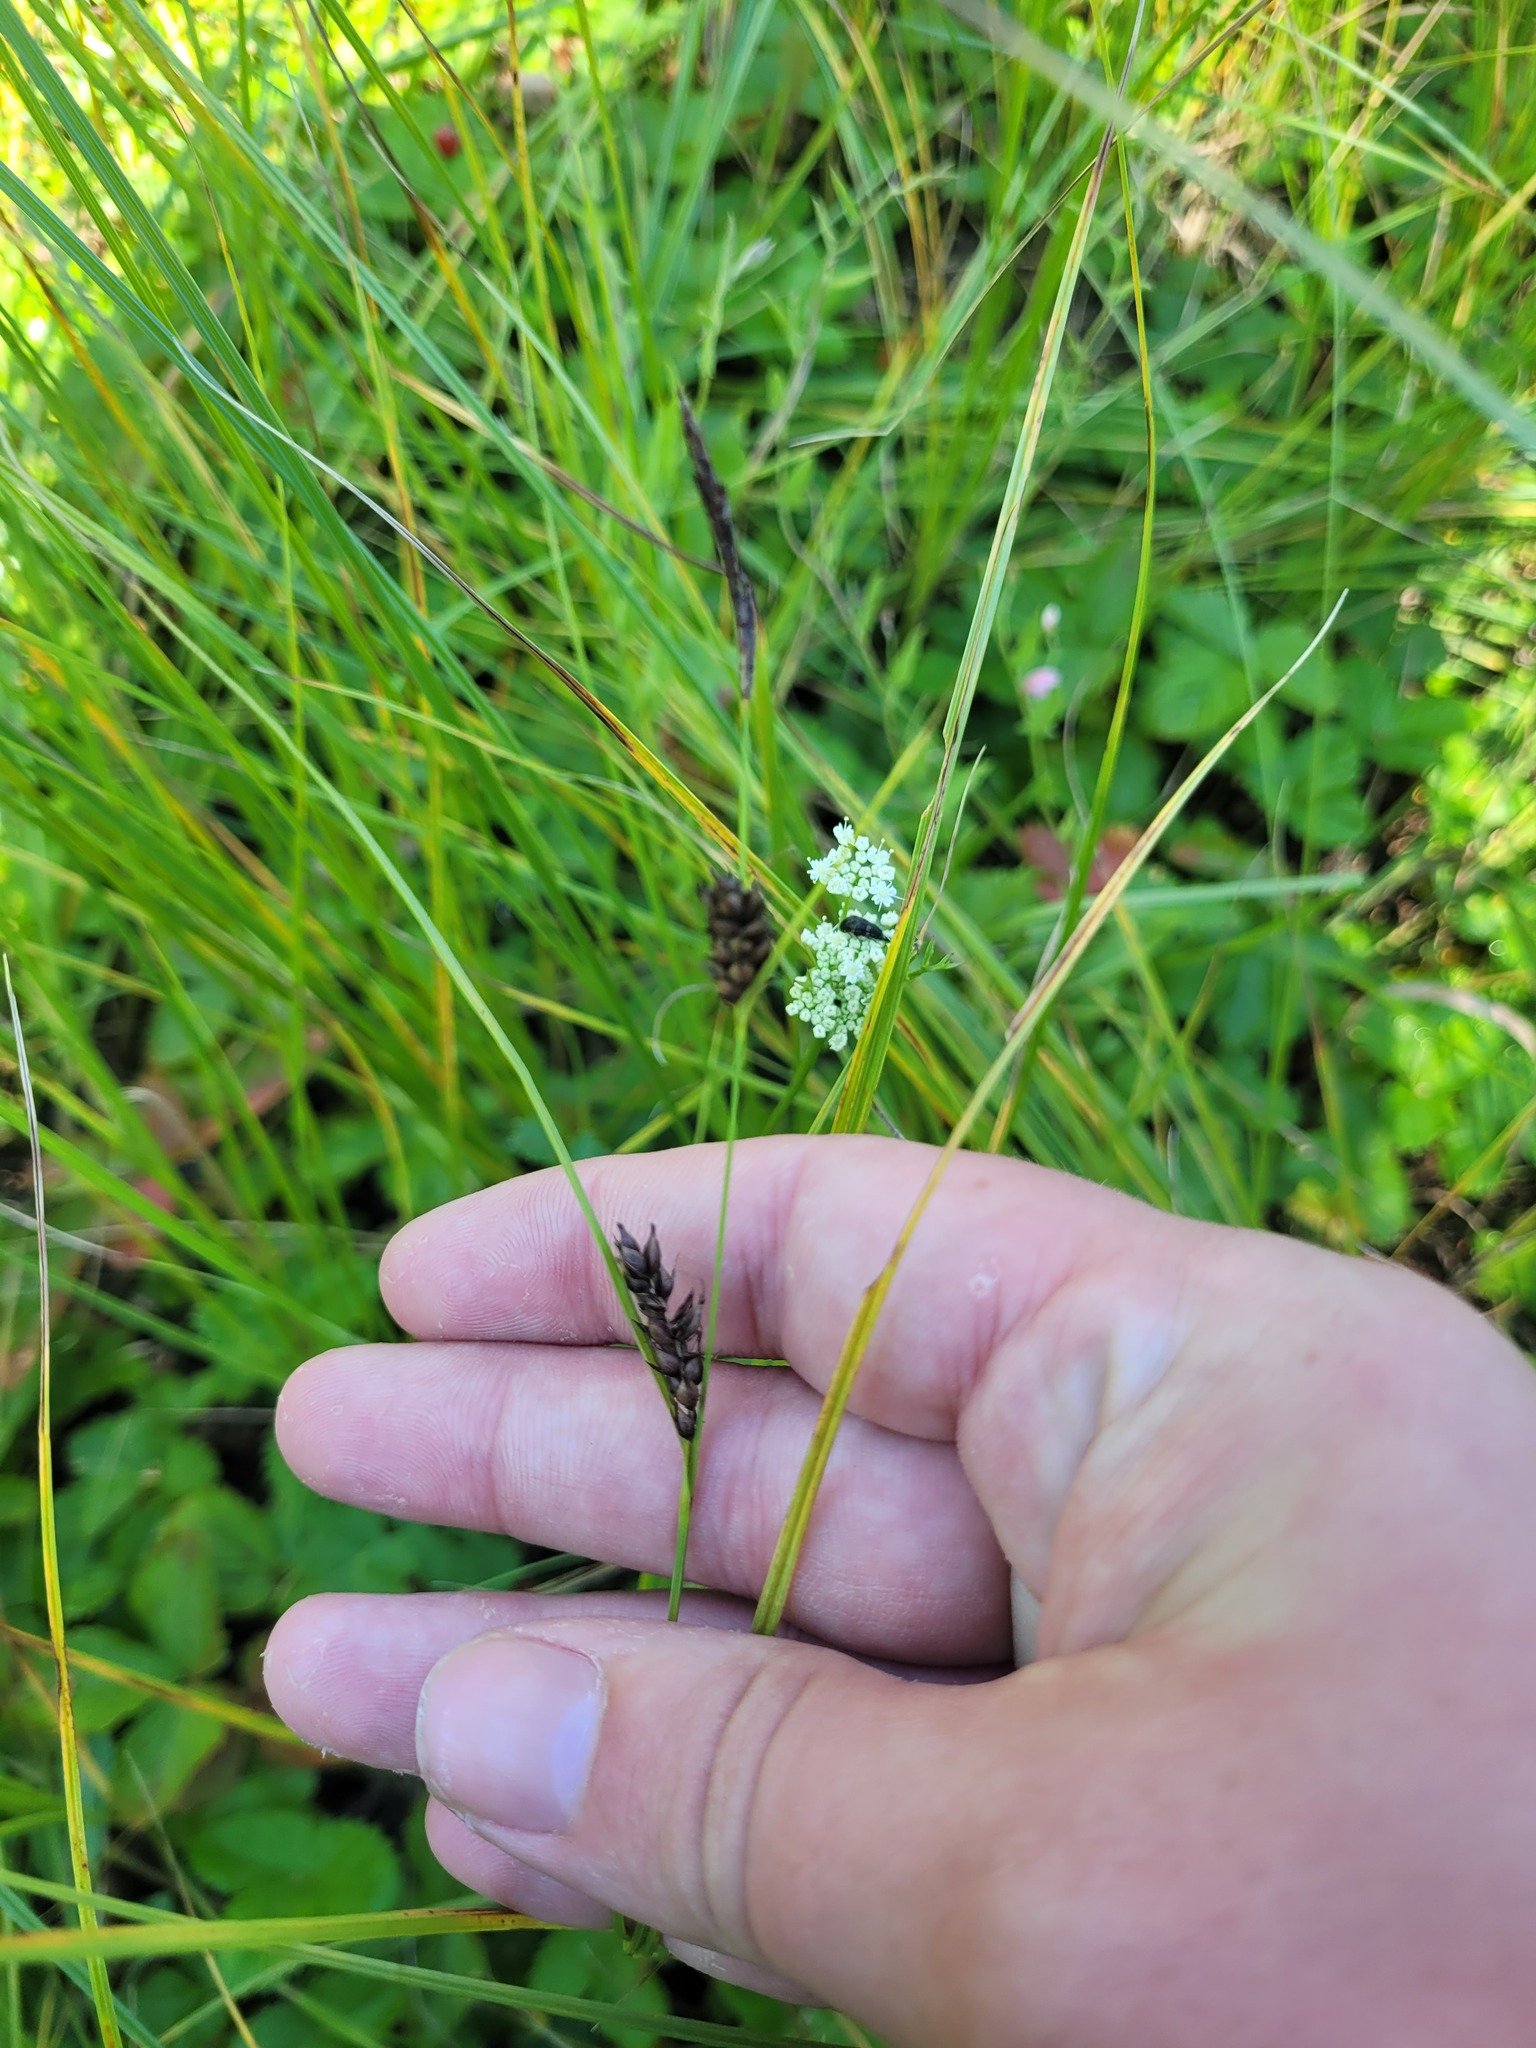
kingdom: Plantae
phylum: Tracheophyta
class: Liliopsida
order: Poales
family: Cyperaceae
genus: Carex
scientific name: Carex melanostachya
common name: Black-spiked sedge
